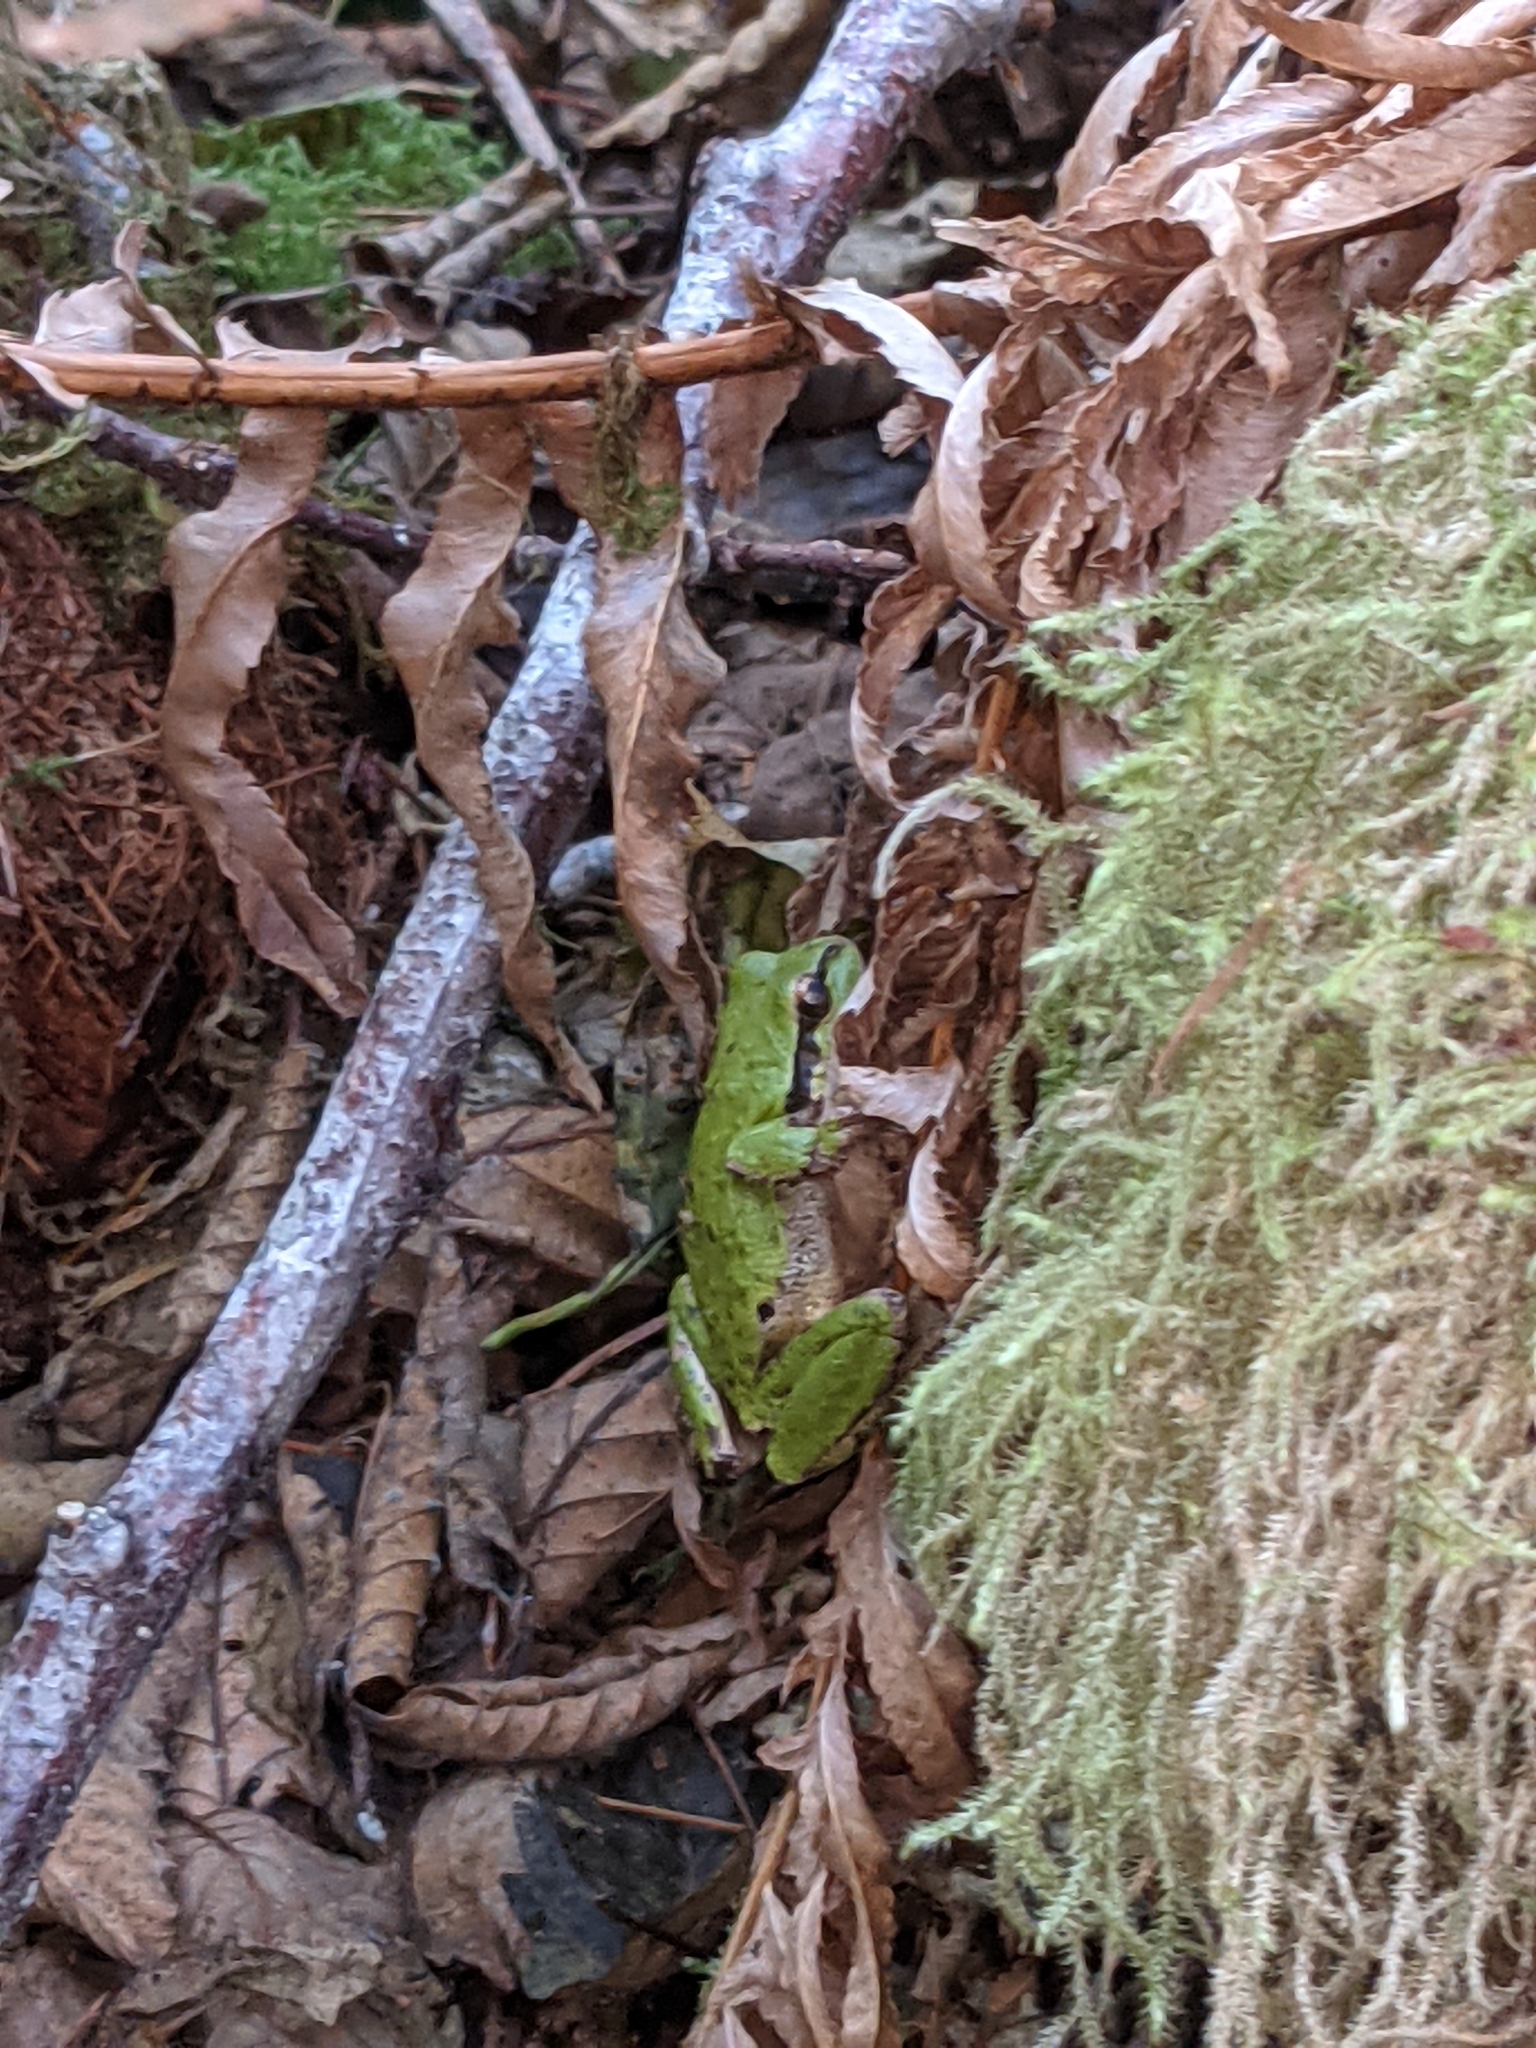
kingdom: Animalia
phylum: Chordata
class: Amphibia
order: Anura
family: Hylidae
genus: Pseudacris
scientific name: Pseudacris regilla
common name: Pacific chorus frog
